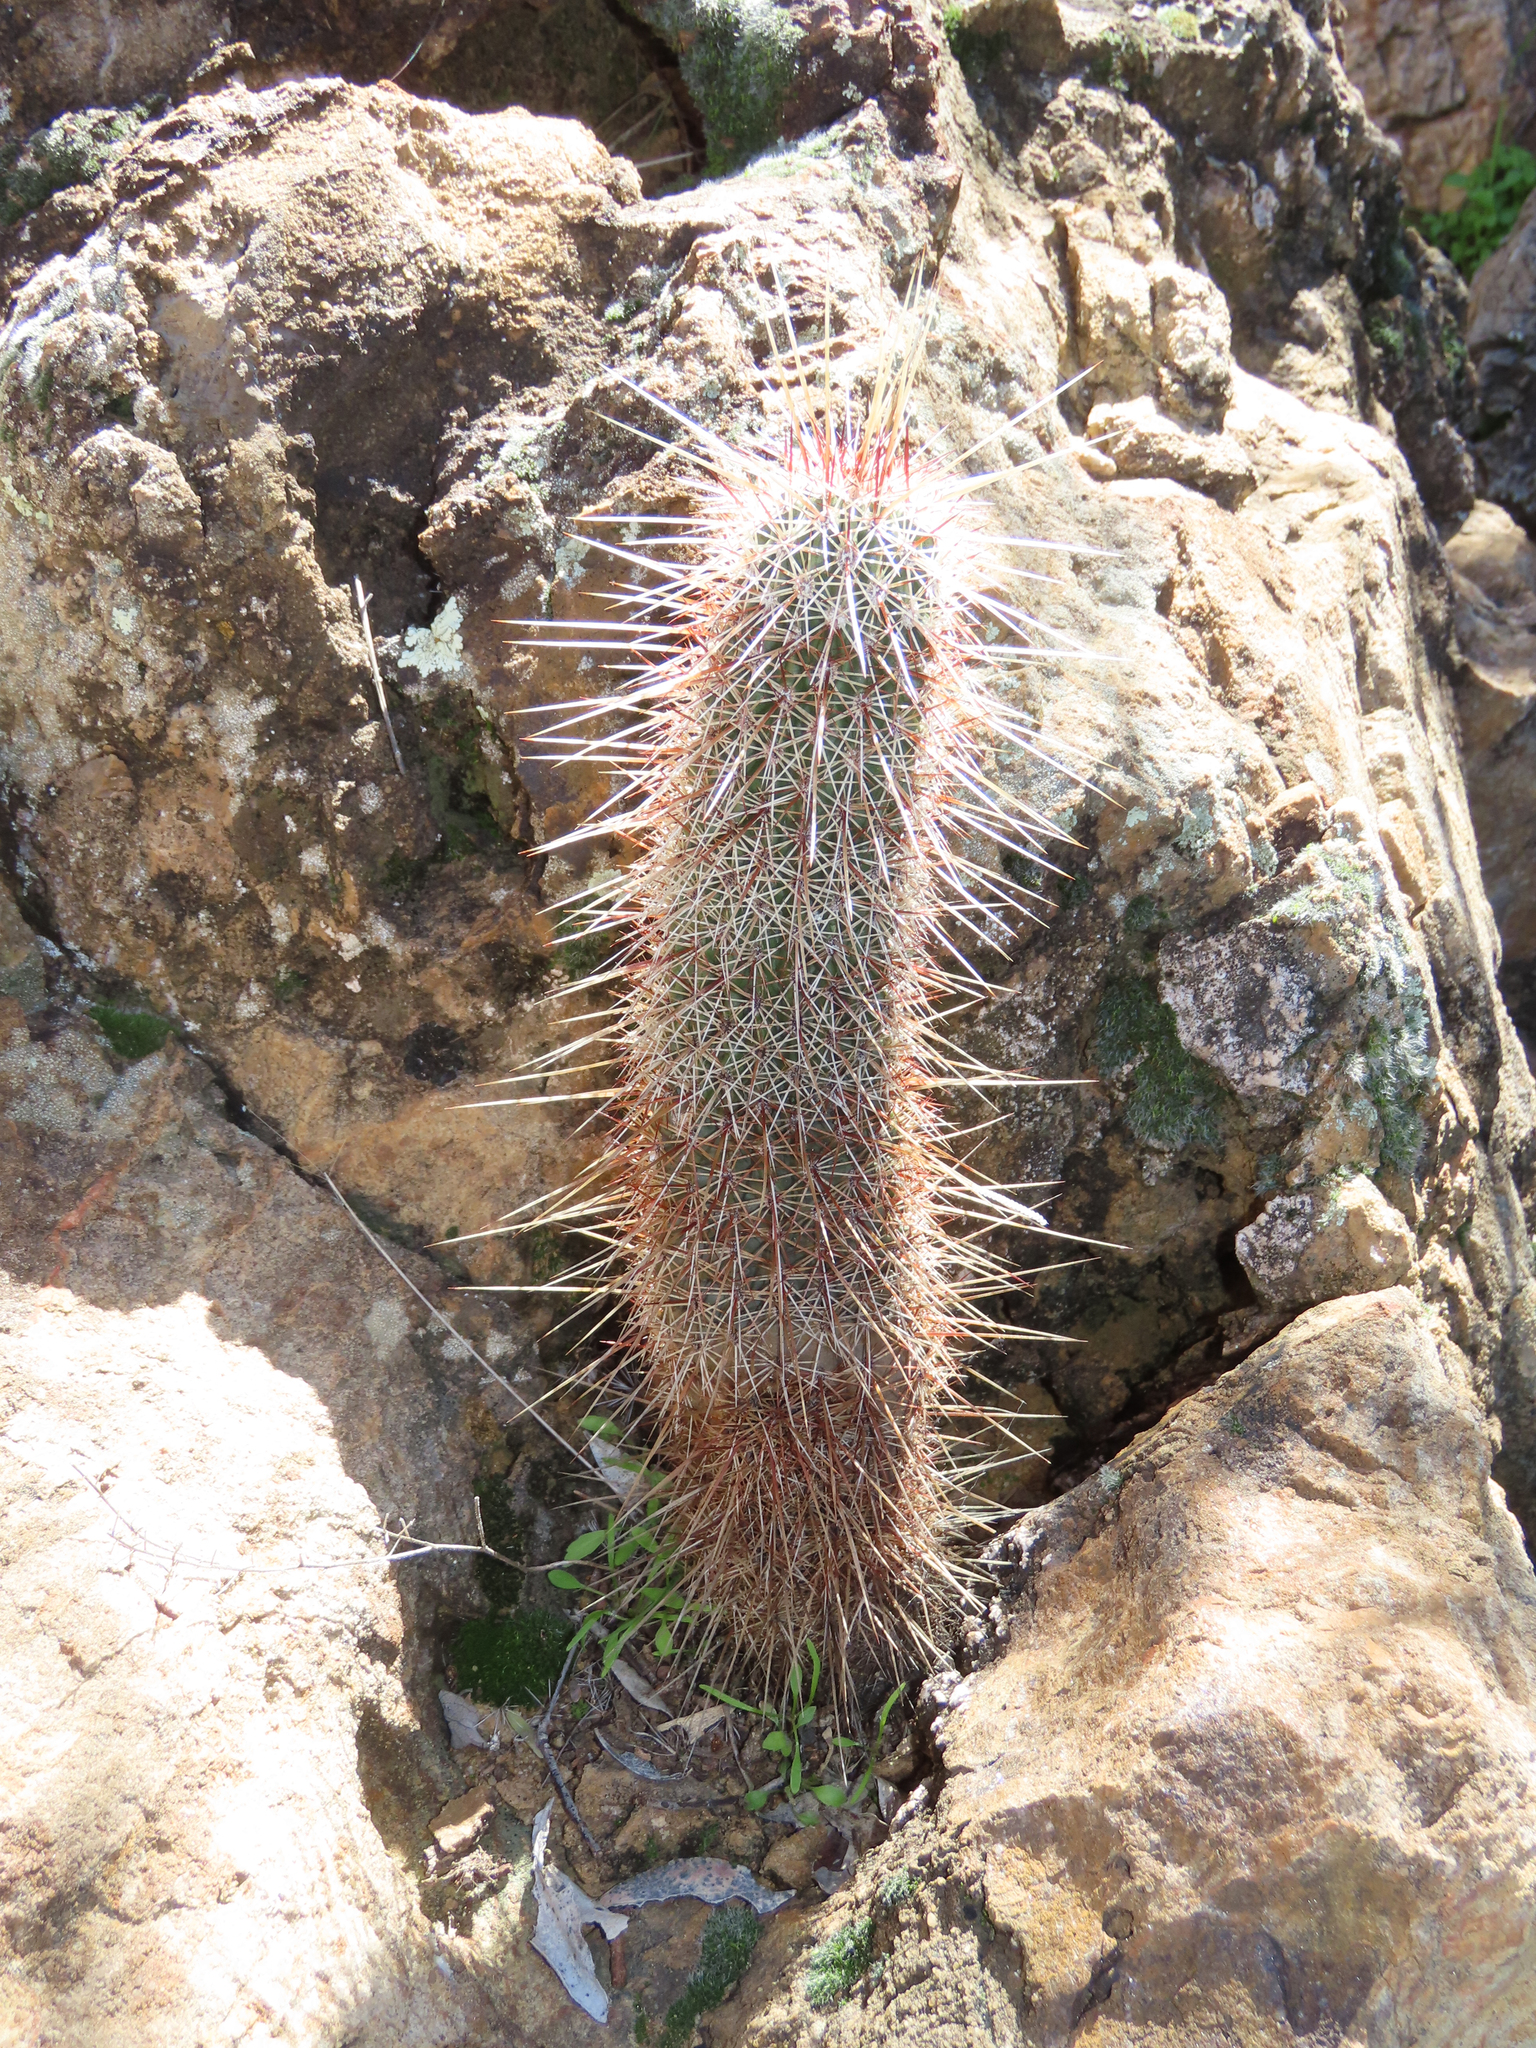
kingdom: Plantae
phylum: Tracheophyta
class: Magnoliopsida
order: Caryophyllales
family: Cactaceae
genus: Echinocereus
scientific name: Echinocereus fasciculatus
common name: Bundle hedgehog
